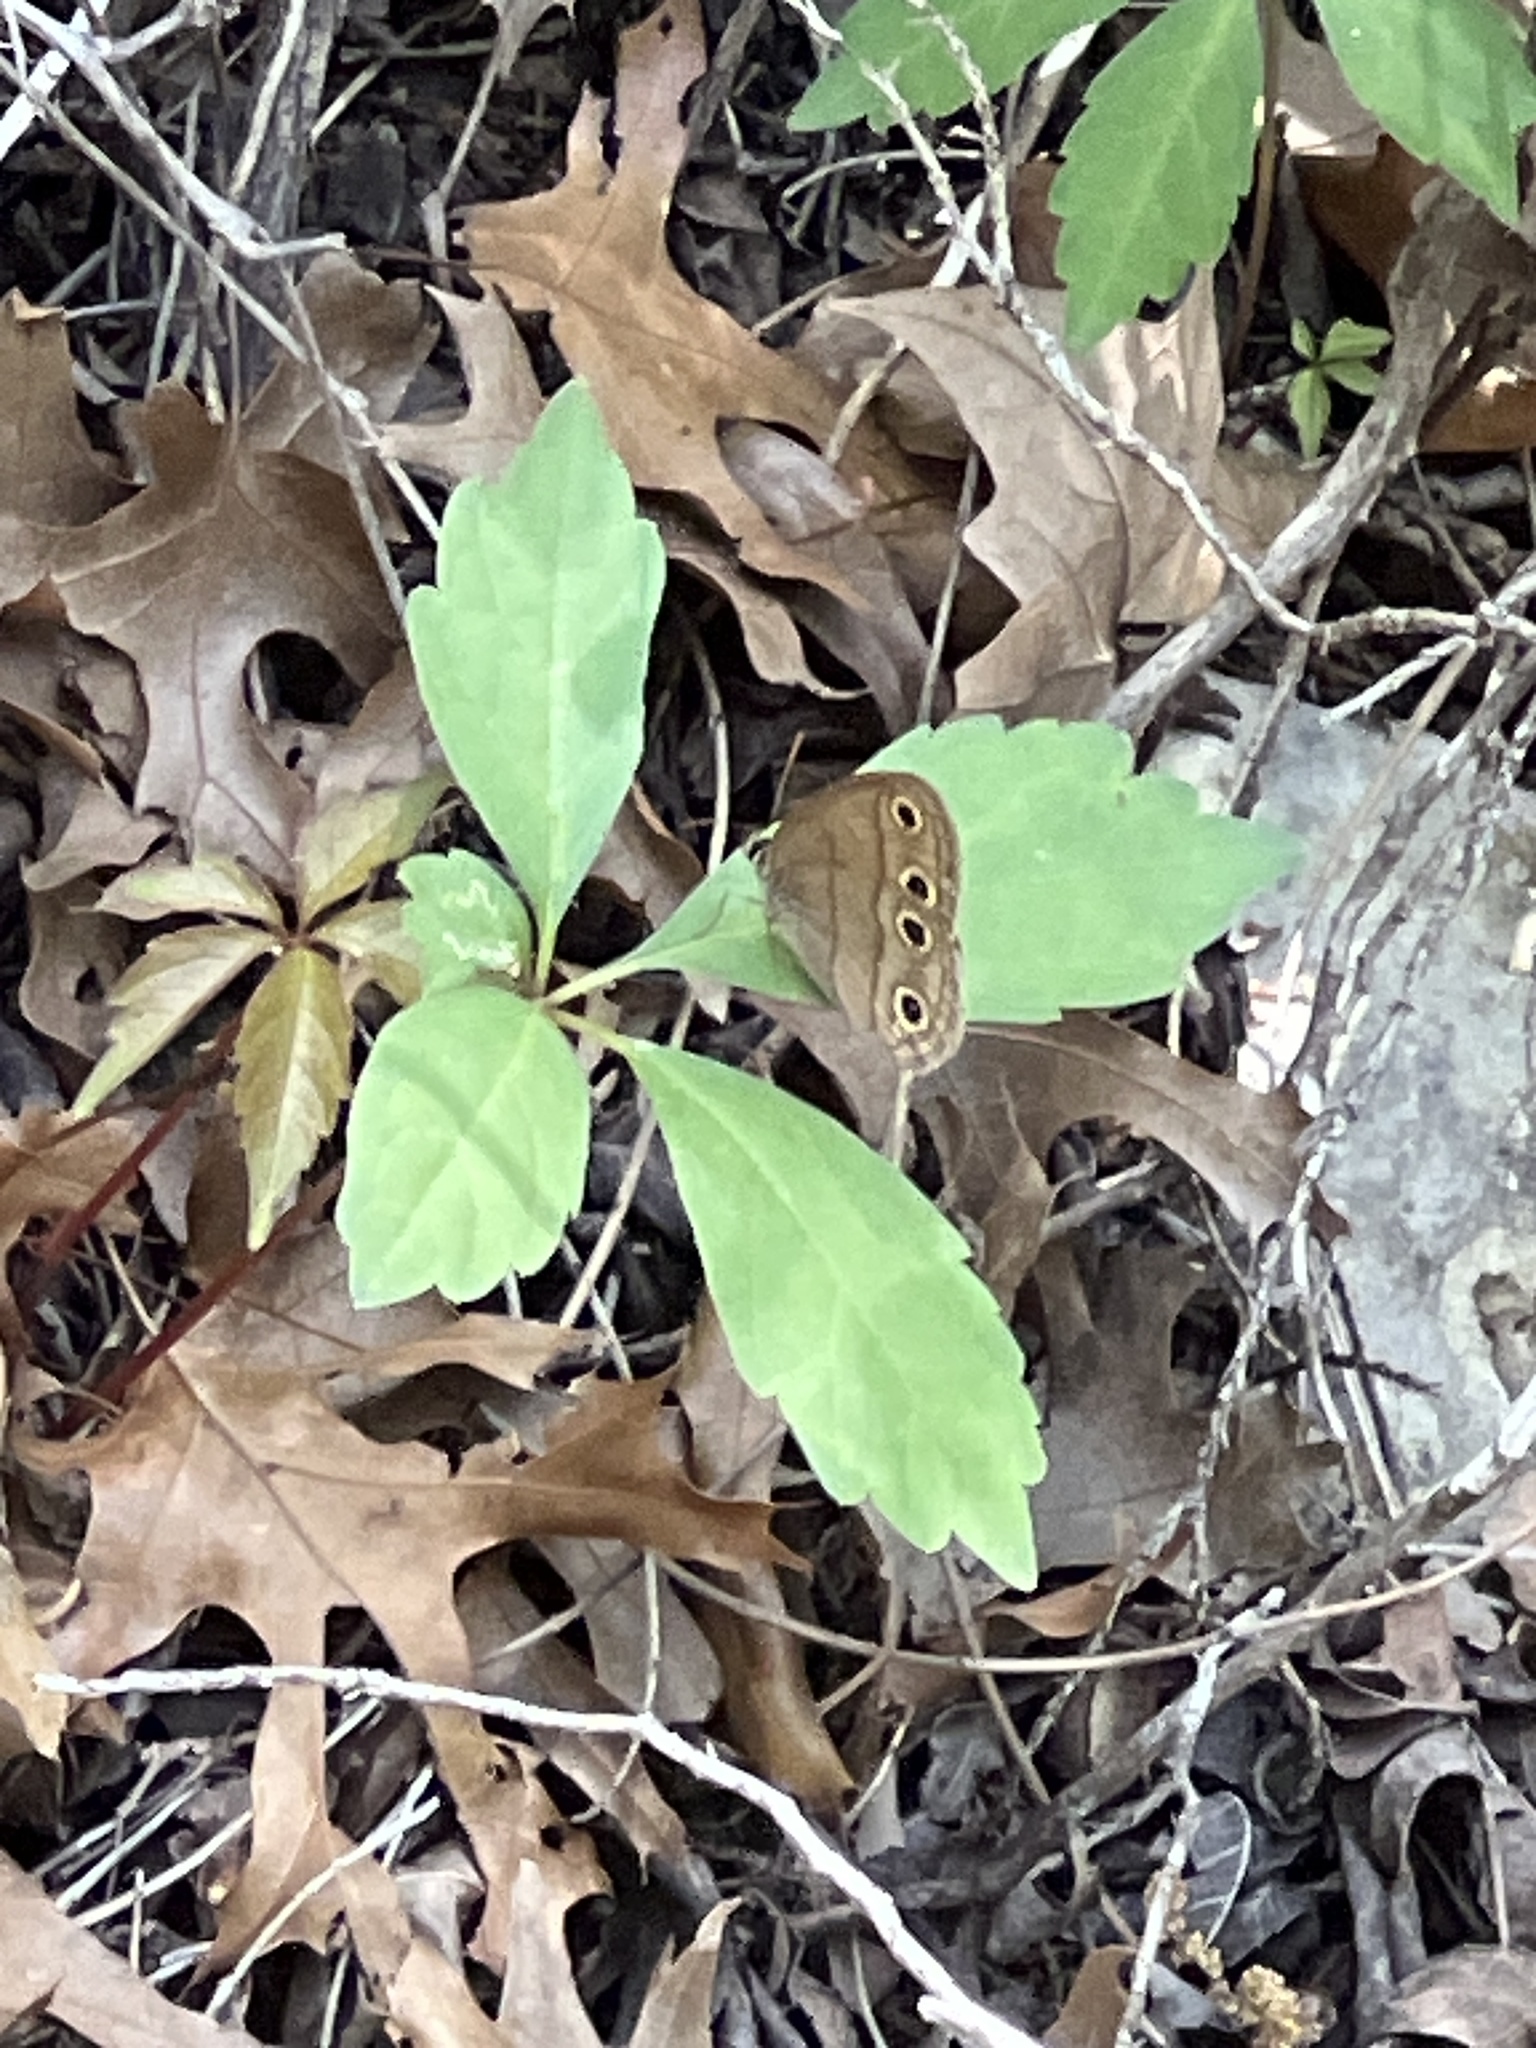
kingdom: Animalia
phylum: Arthropoda
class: Insecta
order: Lepidoptera
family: Nymphalidae
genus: Euptychia
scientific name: Euptychia cymela
